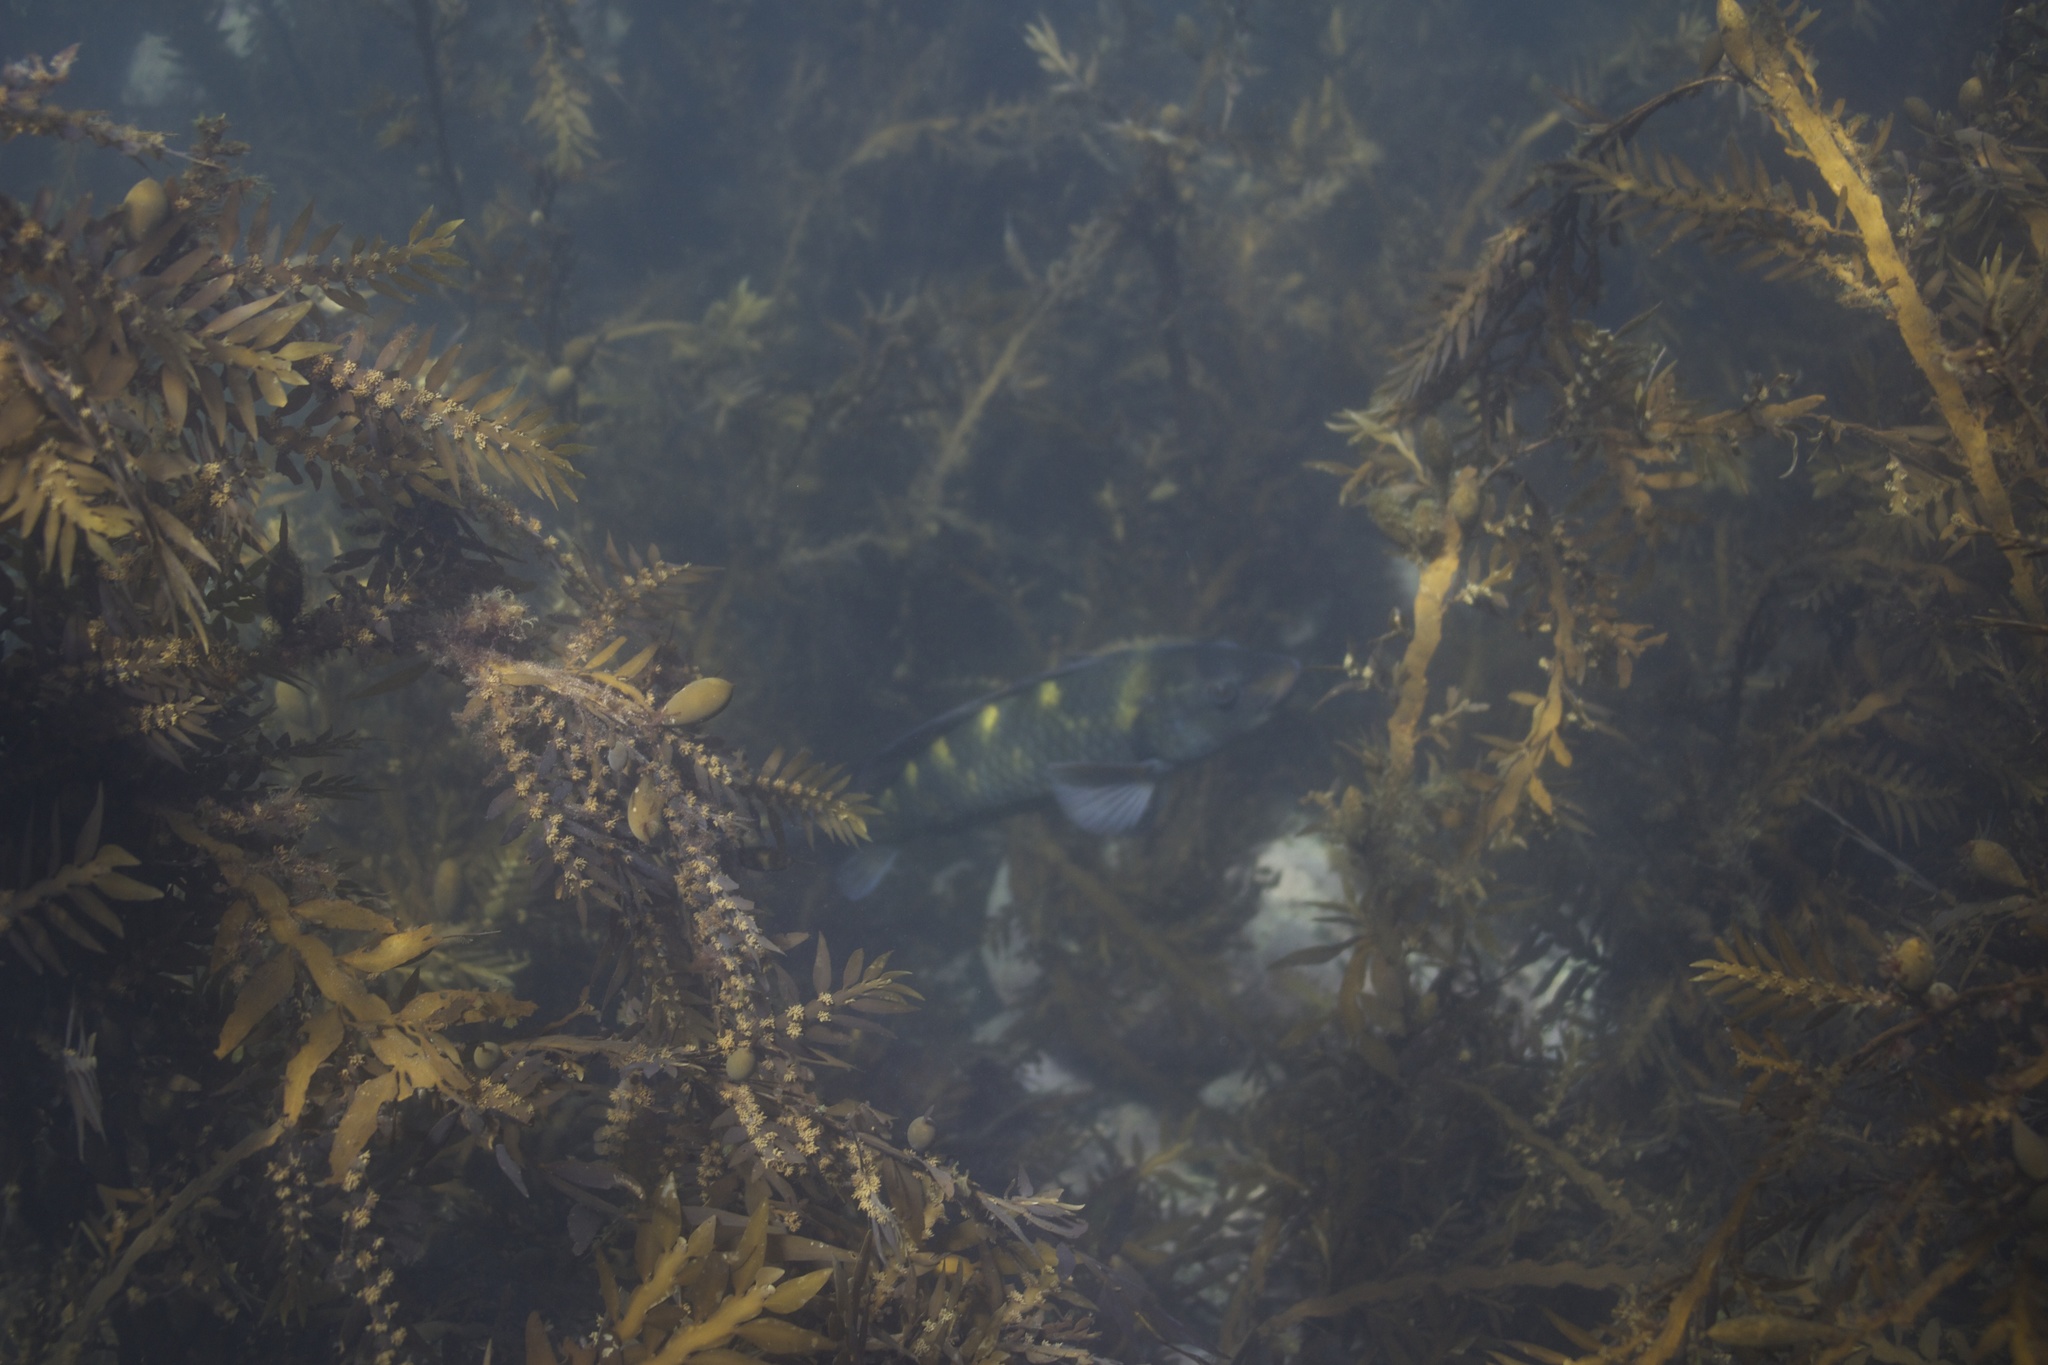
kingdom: Animalia
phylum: Chordata
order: Perciformes
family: Labridae
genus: Notolabrus
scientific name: Notolabrus fucicola
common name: Banded parrotfish
